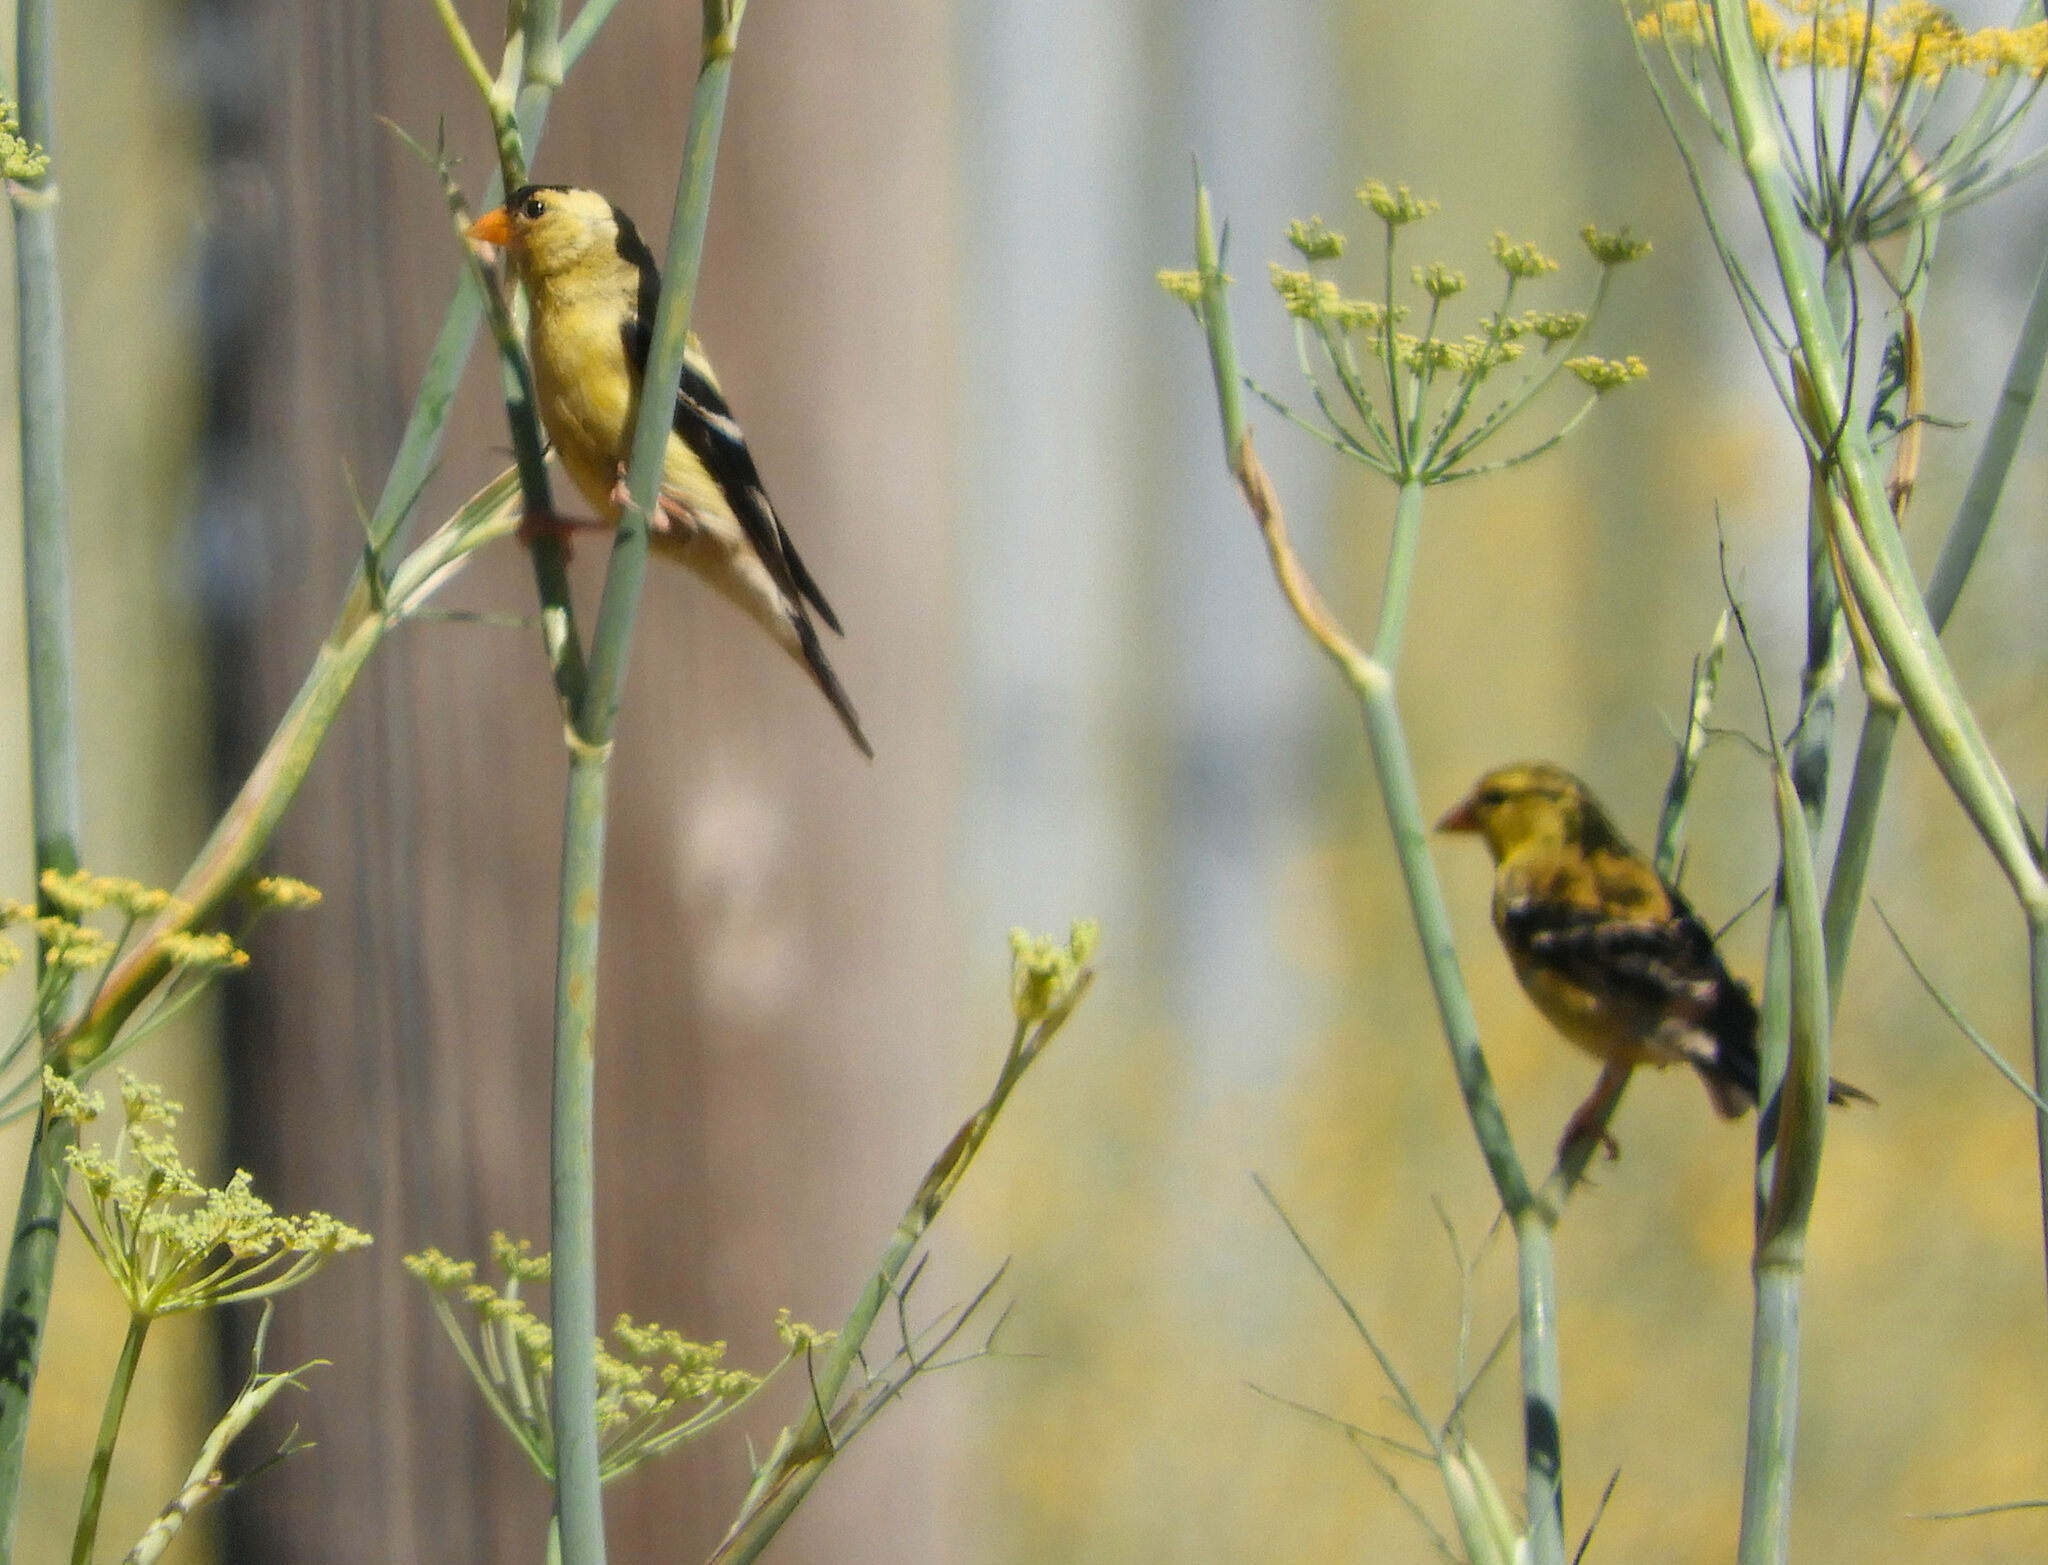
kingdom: Animalia
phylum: Chordata
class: Aves
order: Passeriformes
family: Fringillidae
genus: Spinus
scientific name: Spinus tristis
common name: American goldfinch
